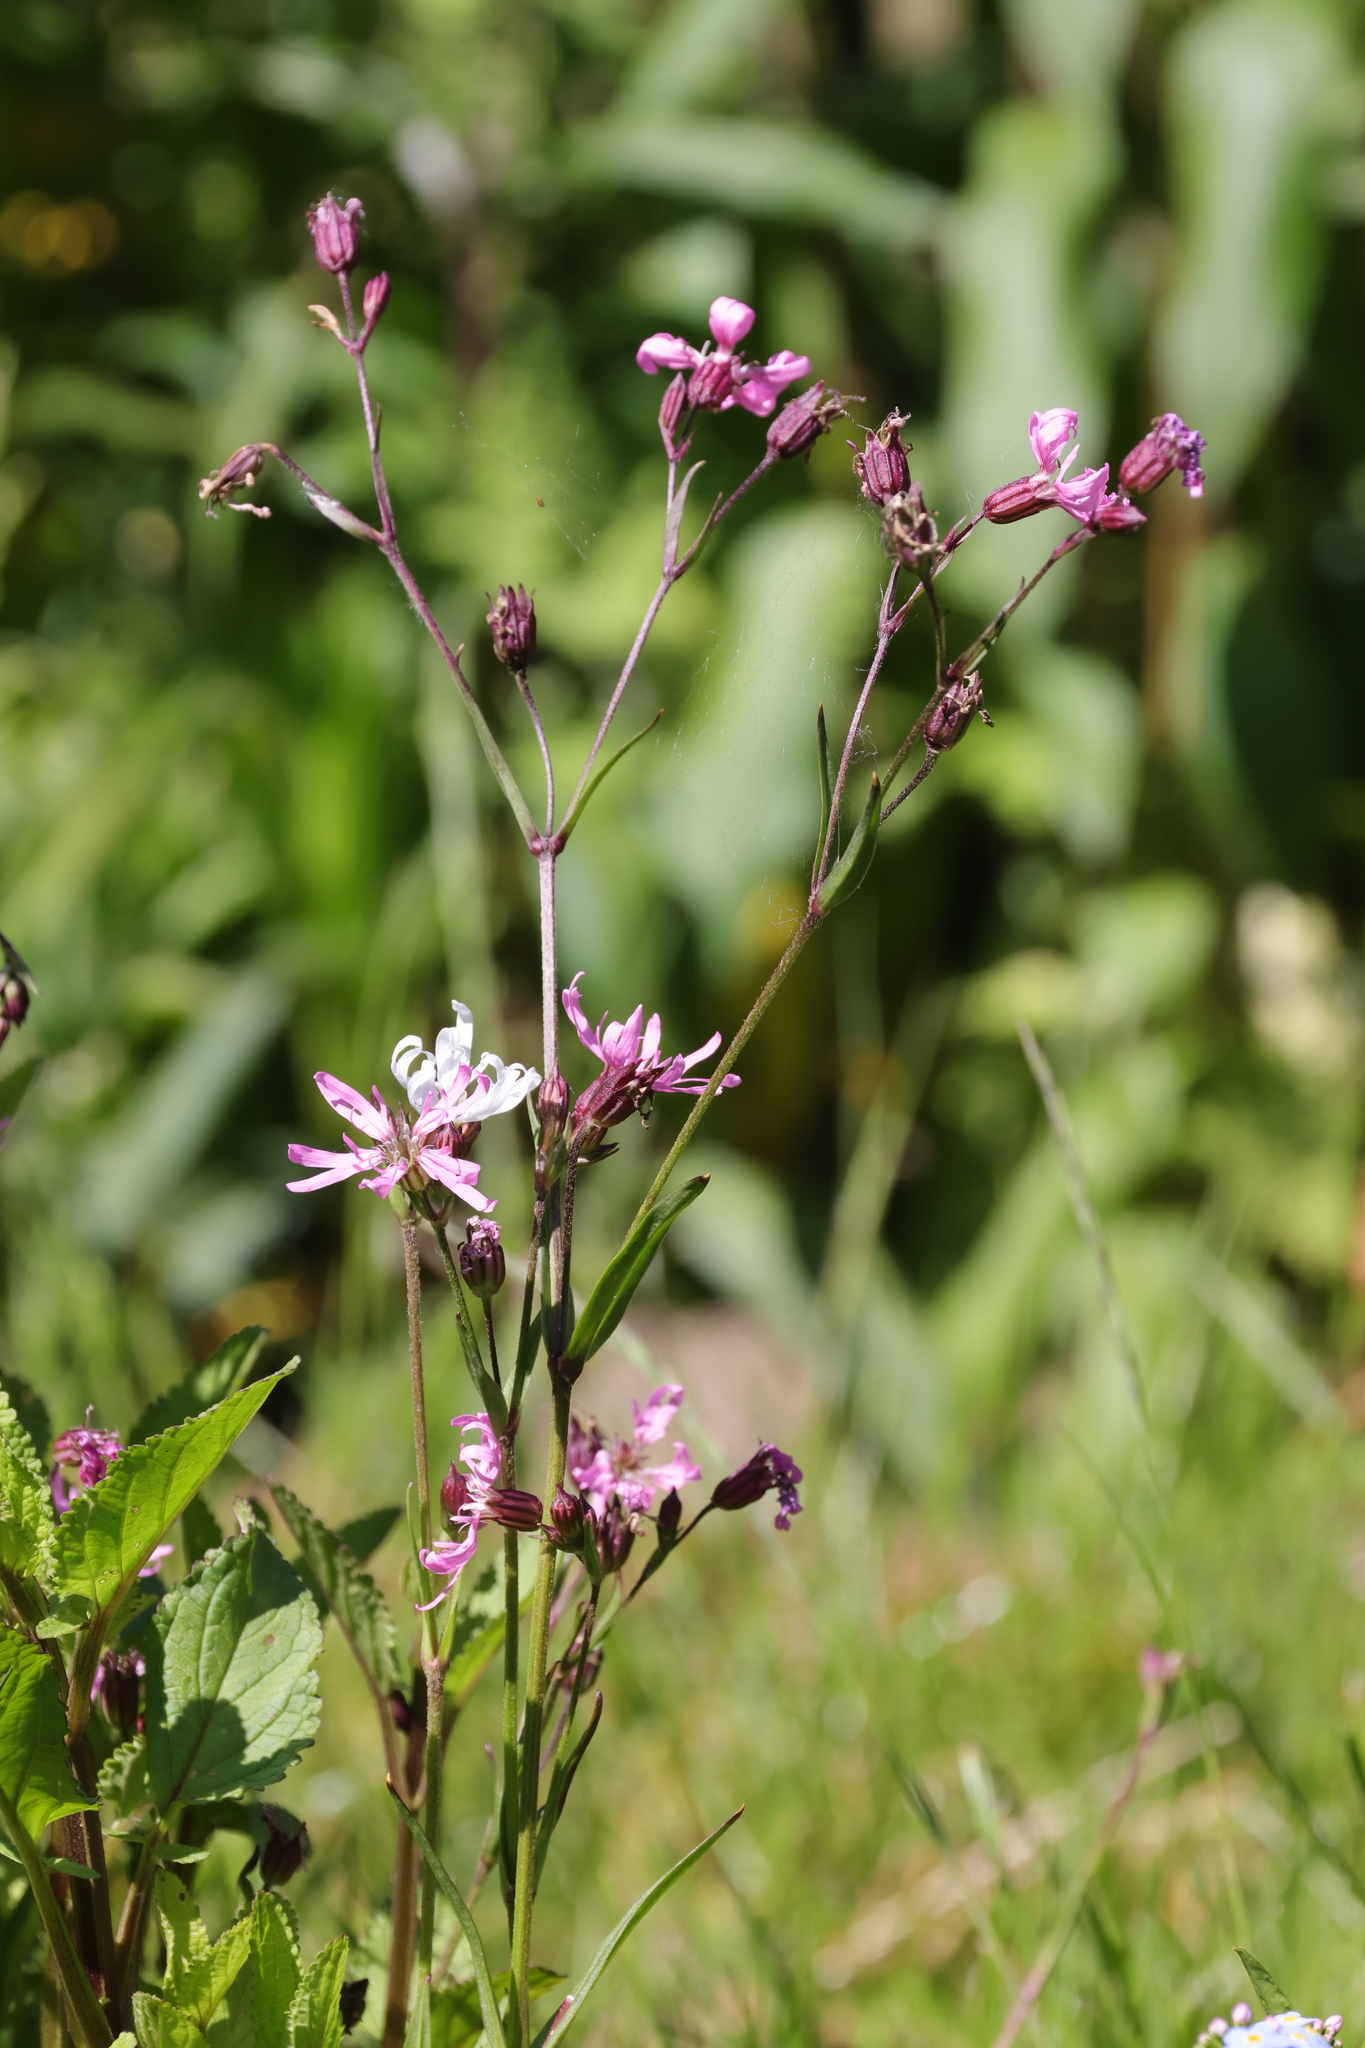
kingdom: Plantae
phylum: Tracheophyta
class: Magnoliopsida
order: Caryophyllales
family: Caryophyllaceae
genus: Silene
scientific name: Silene flos-cuculi
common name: Ragged-robin
